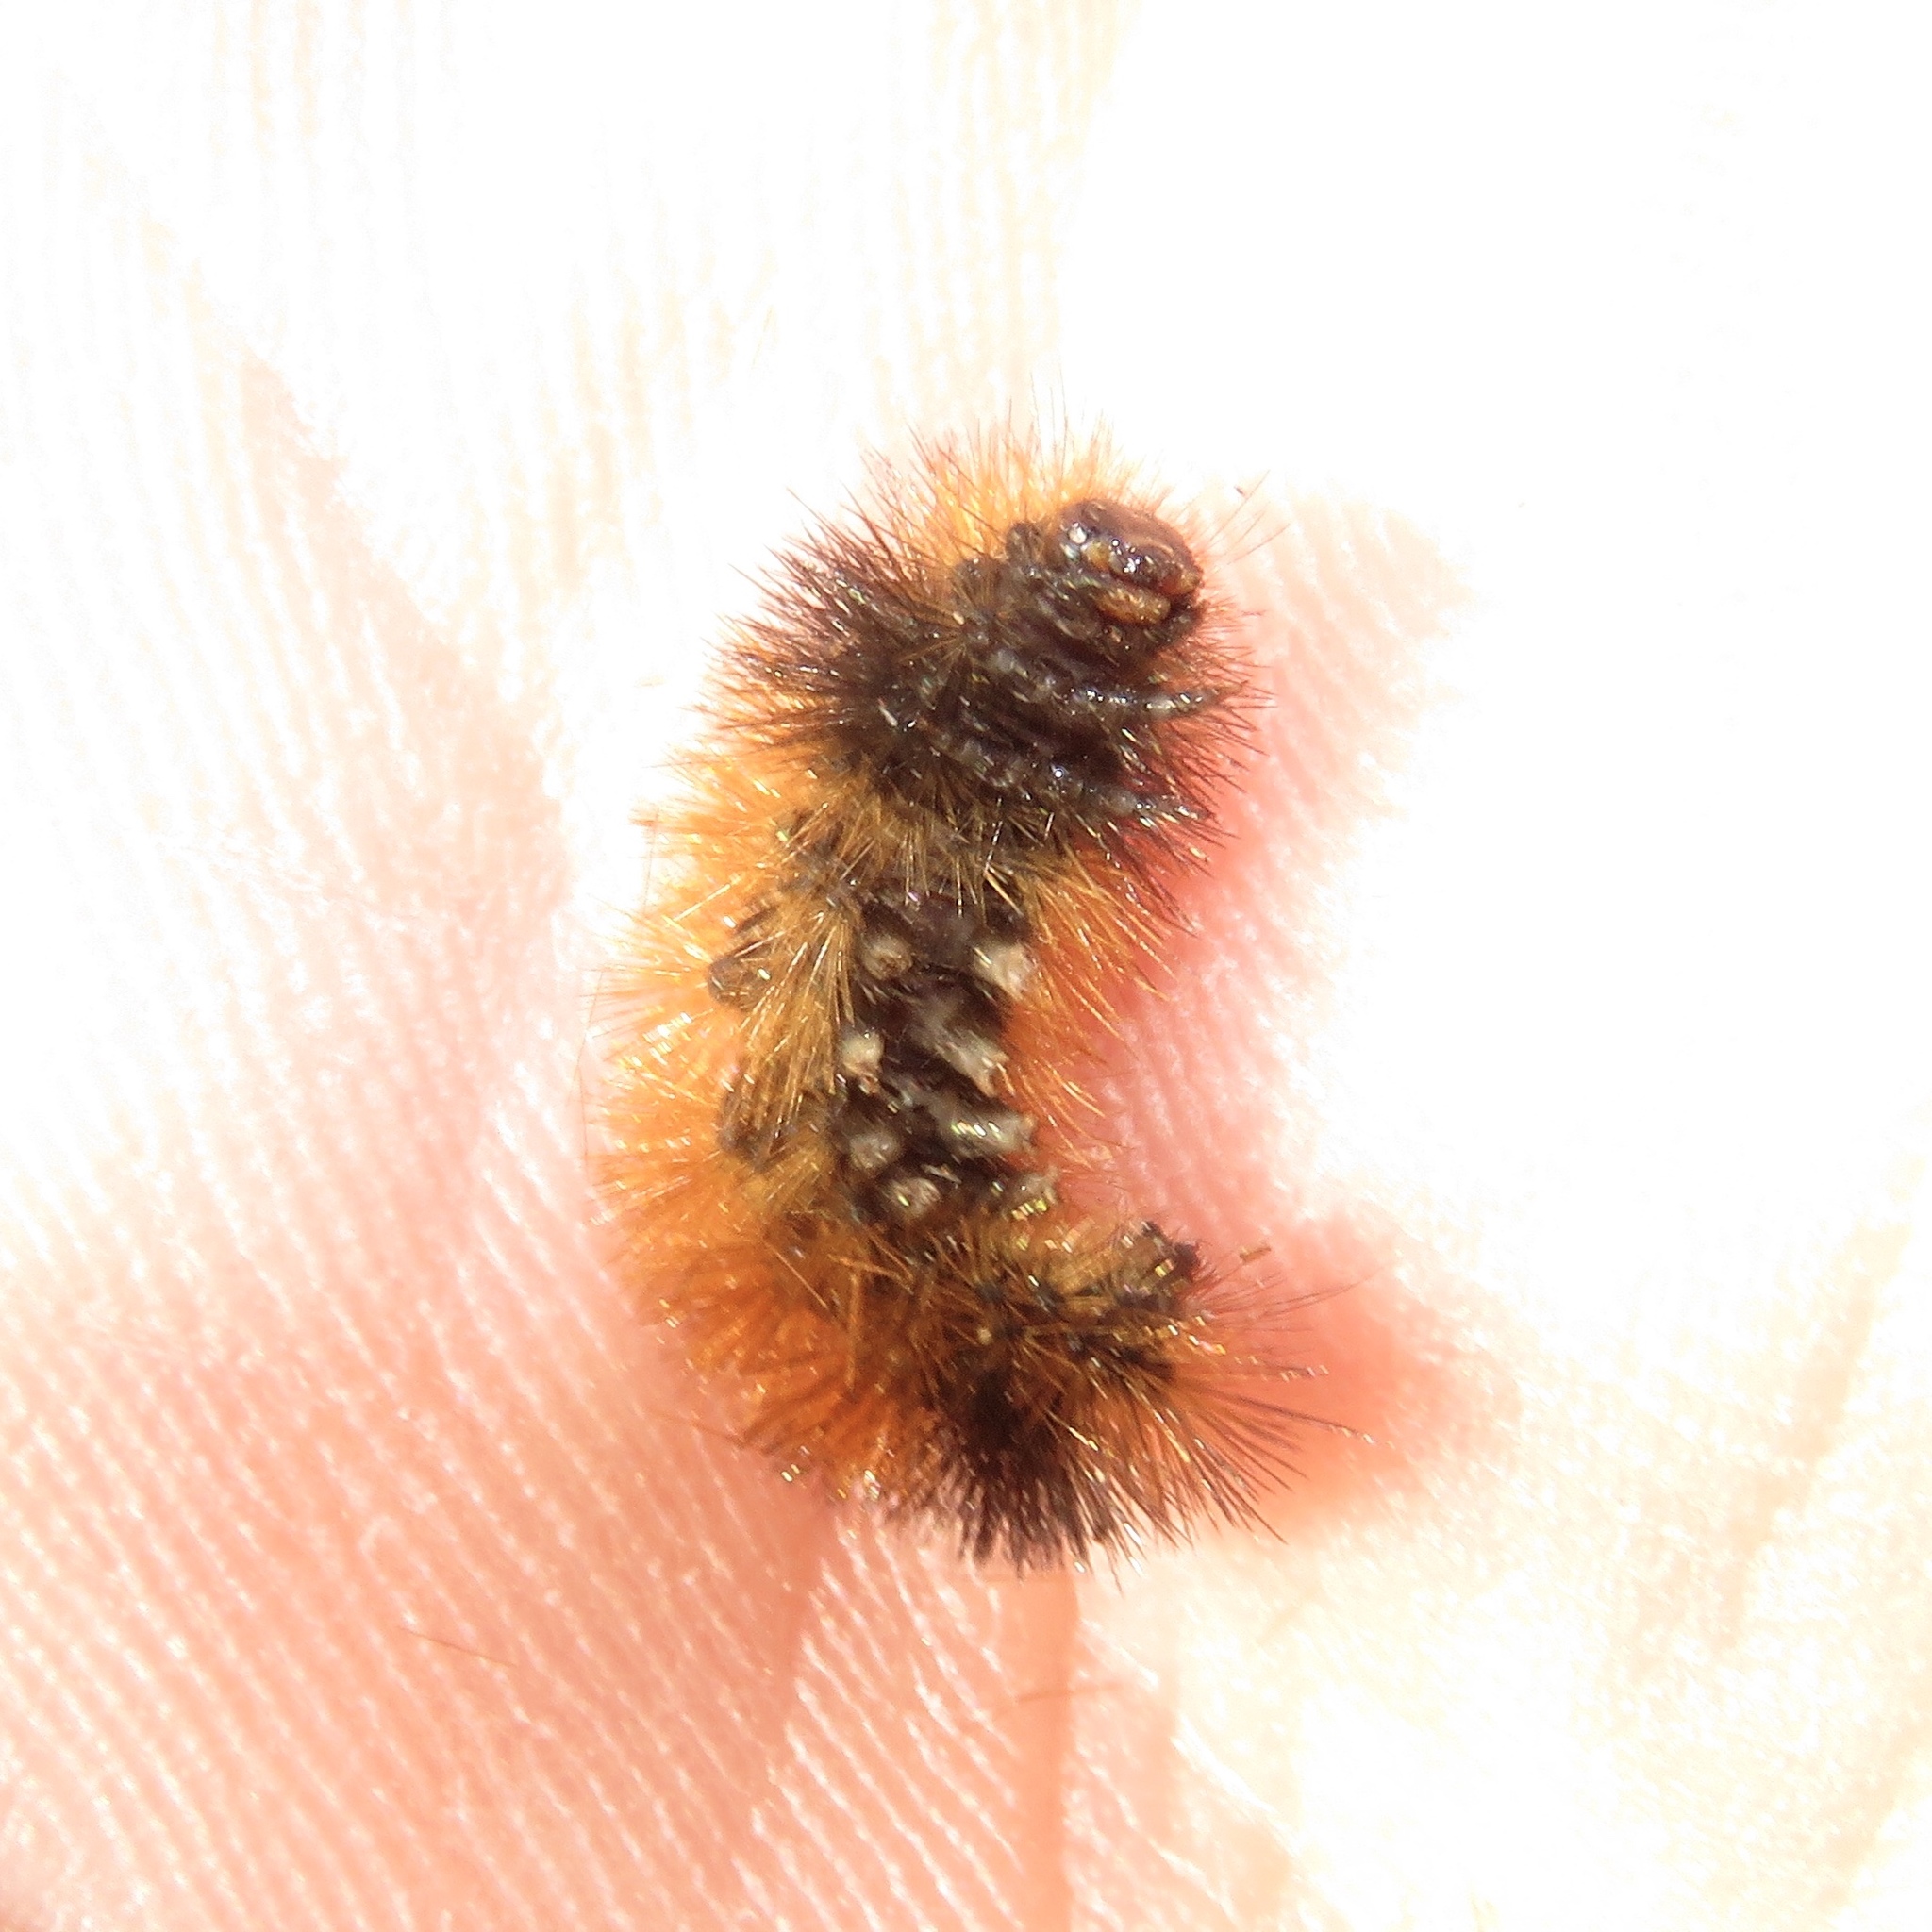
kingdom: Animalia
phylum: Arthropoda
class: Insecta
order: Lepidoptera
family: Erebidae
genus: Pyrrharctia
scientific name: Pyrrharctia isabella
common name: Isabella tiger moth
